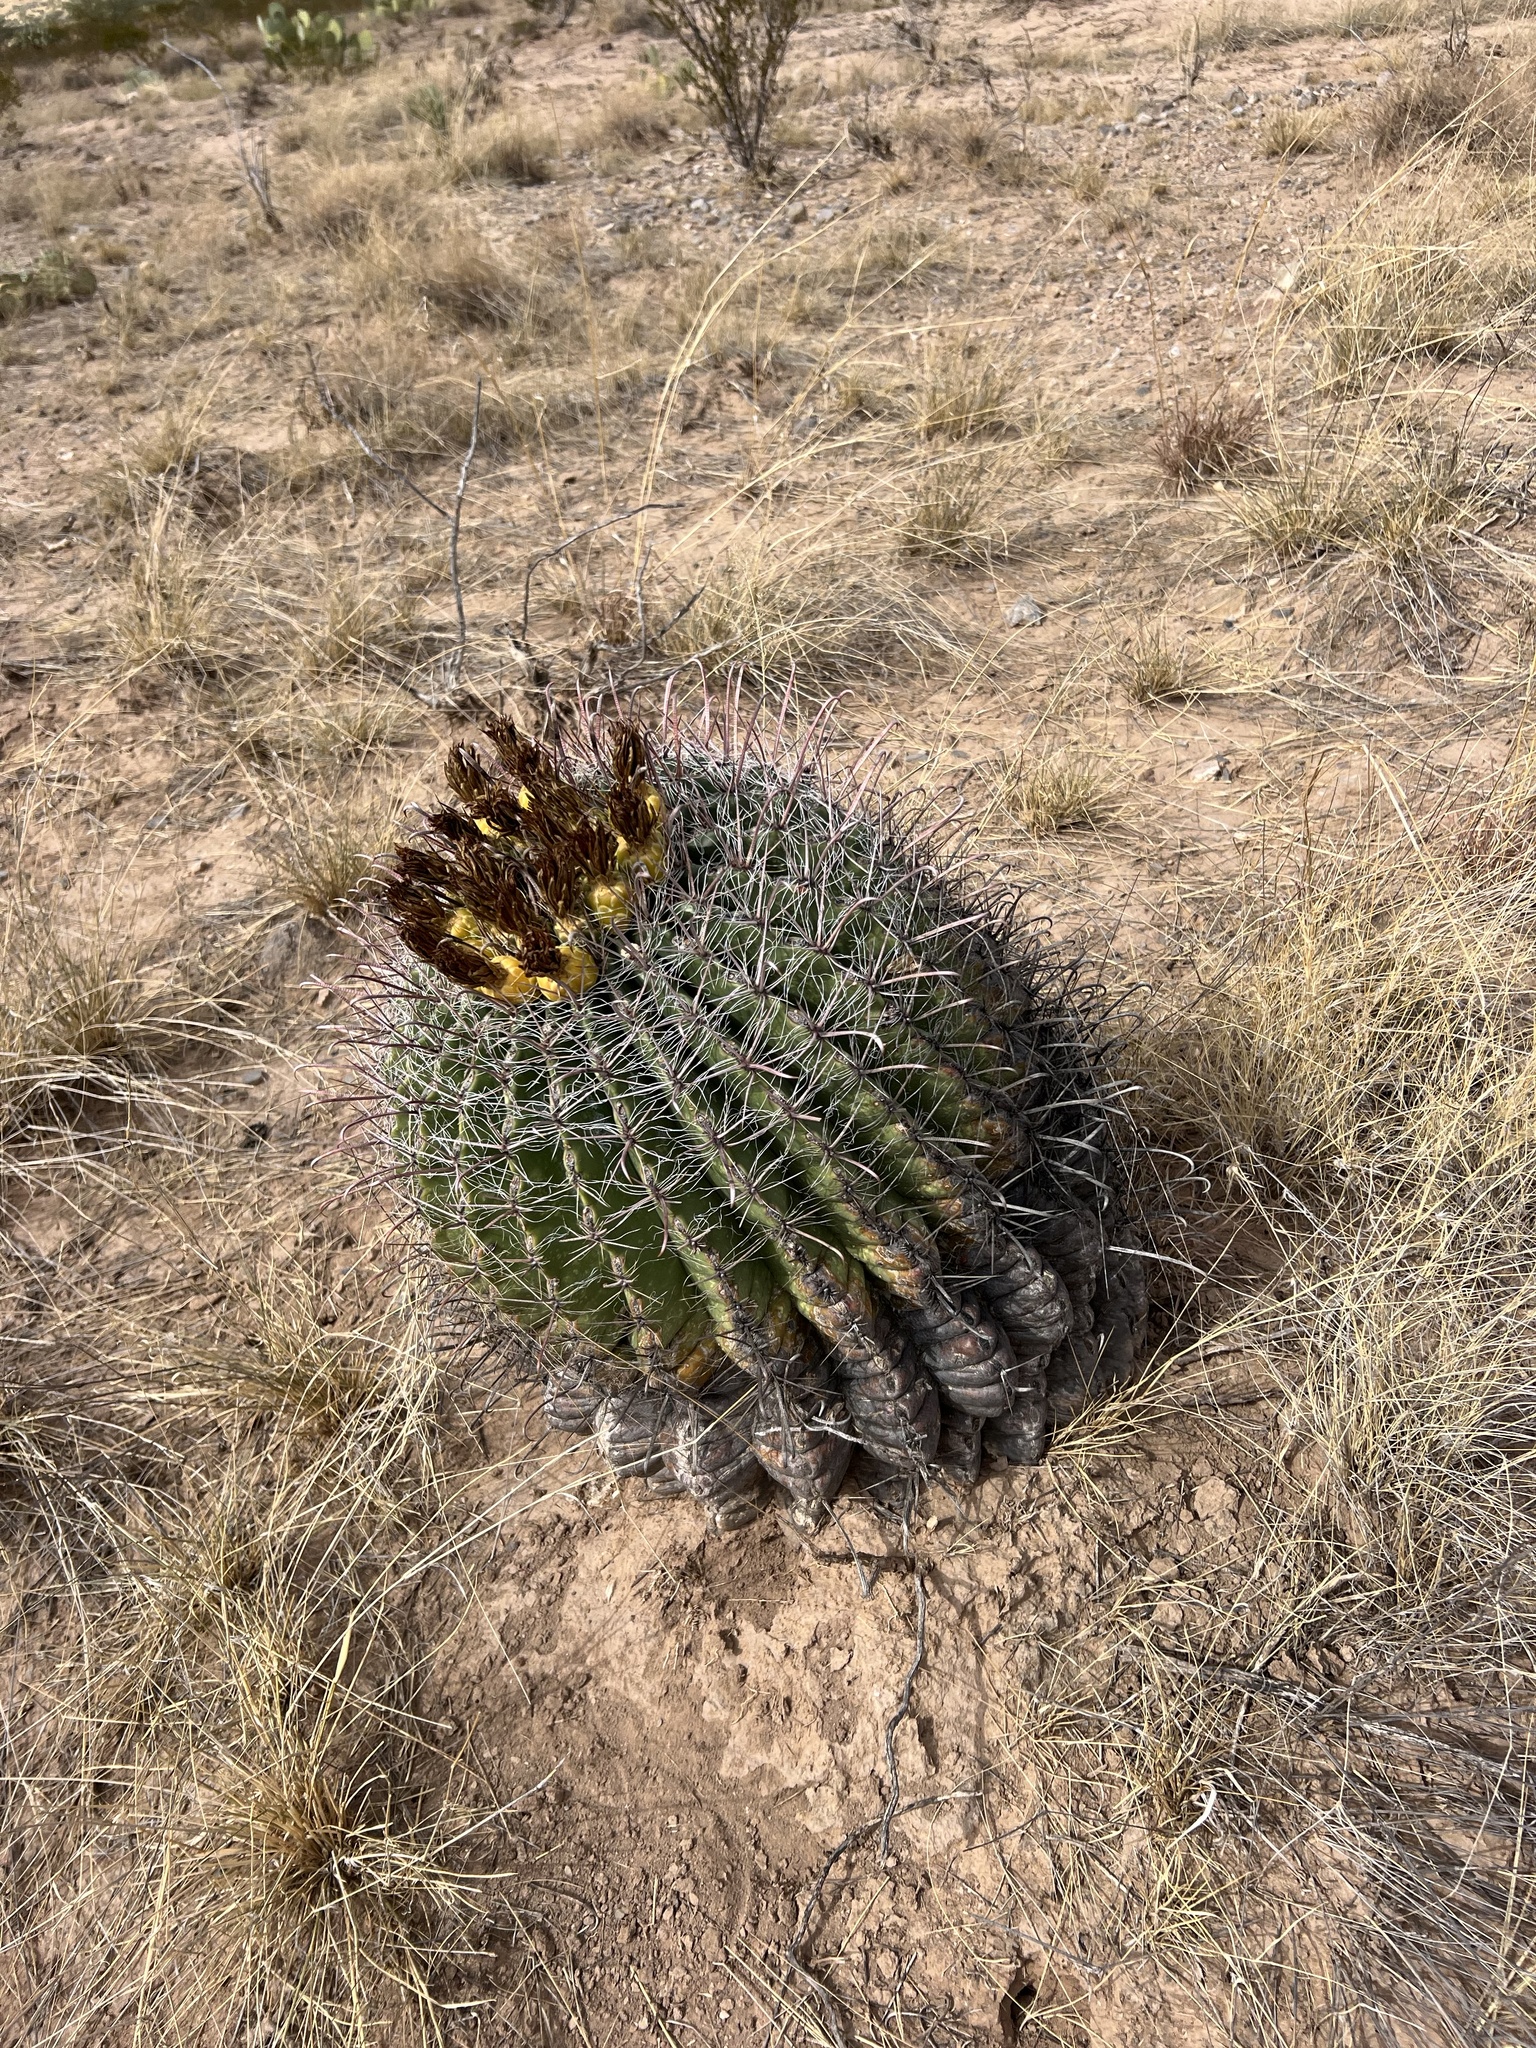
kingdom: Plantae
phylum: Tracheophyta
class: Magnoliopsida
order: Caryophyllales
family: Cactaceae
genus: Ferocactus
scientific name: Ferocactus wislizeni
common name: Candy barrel cactus
